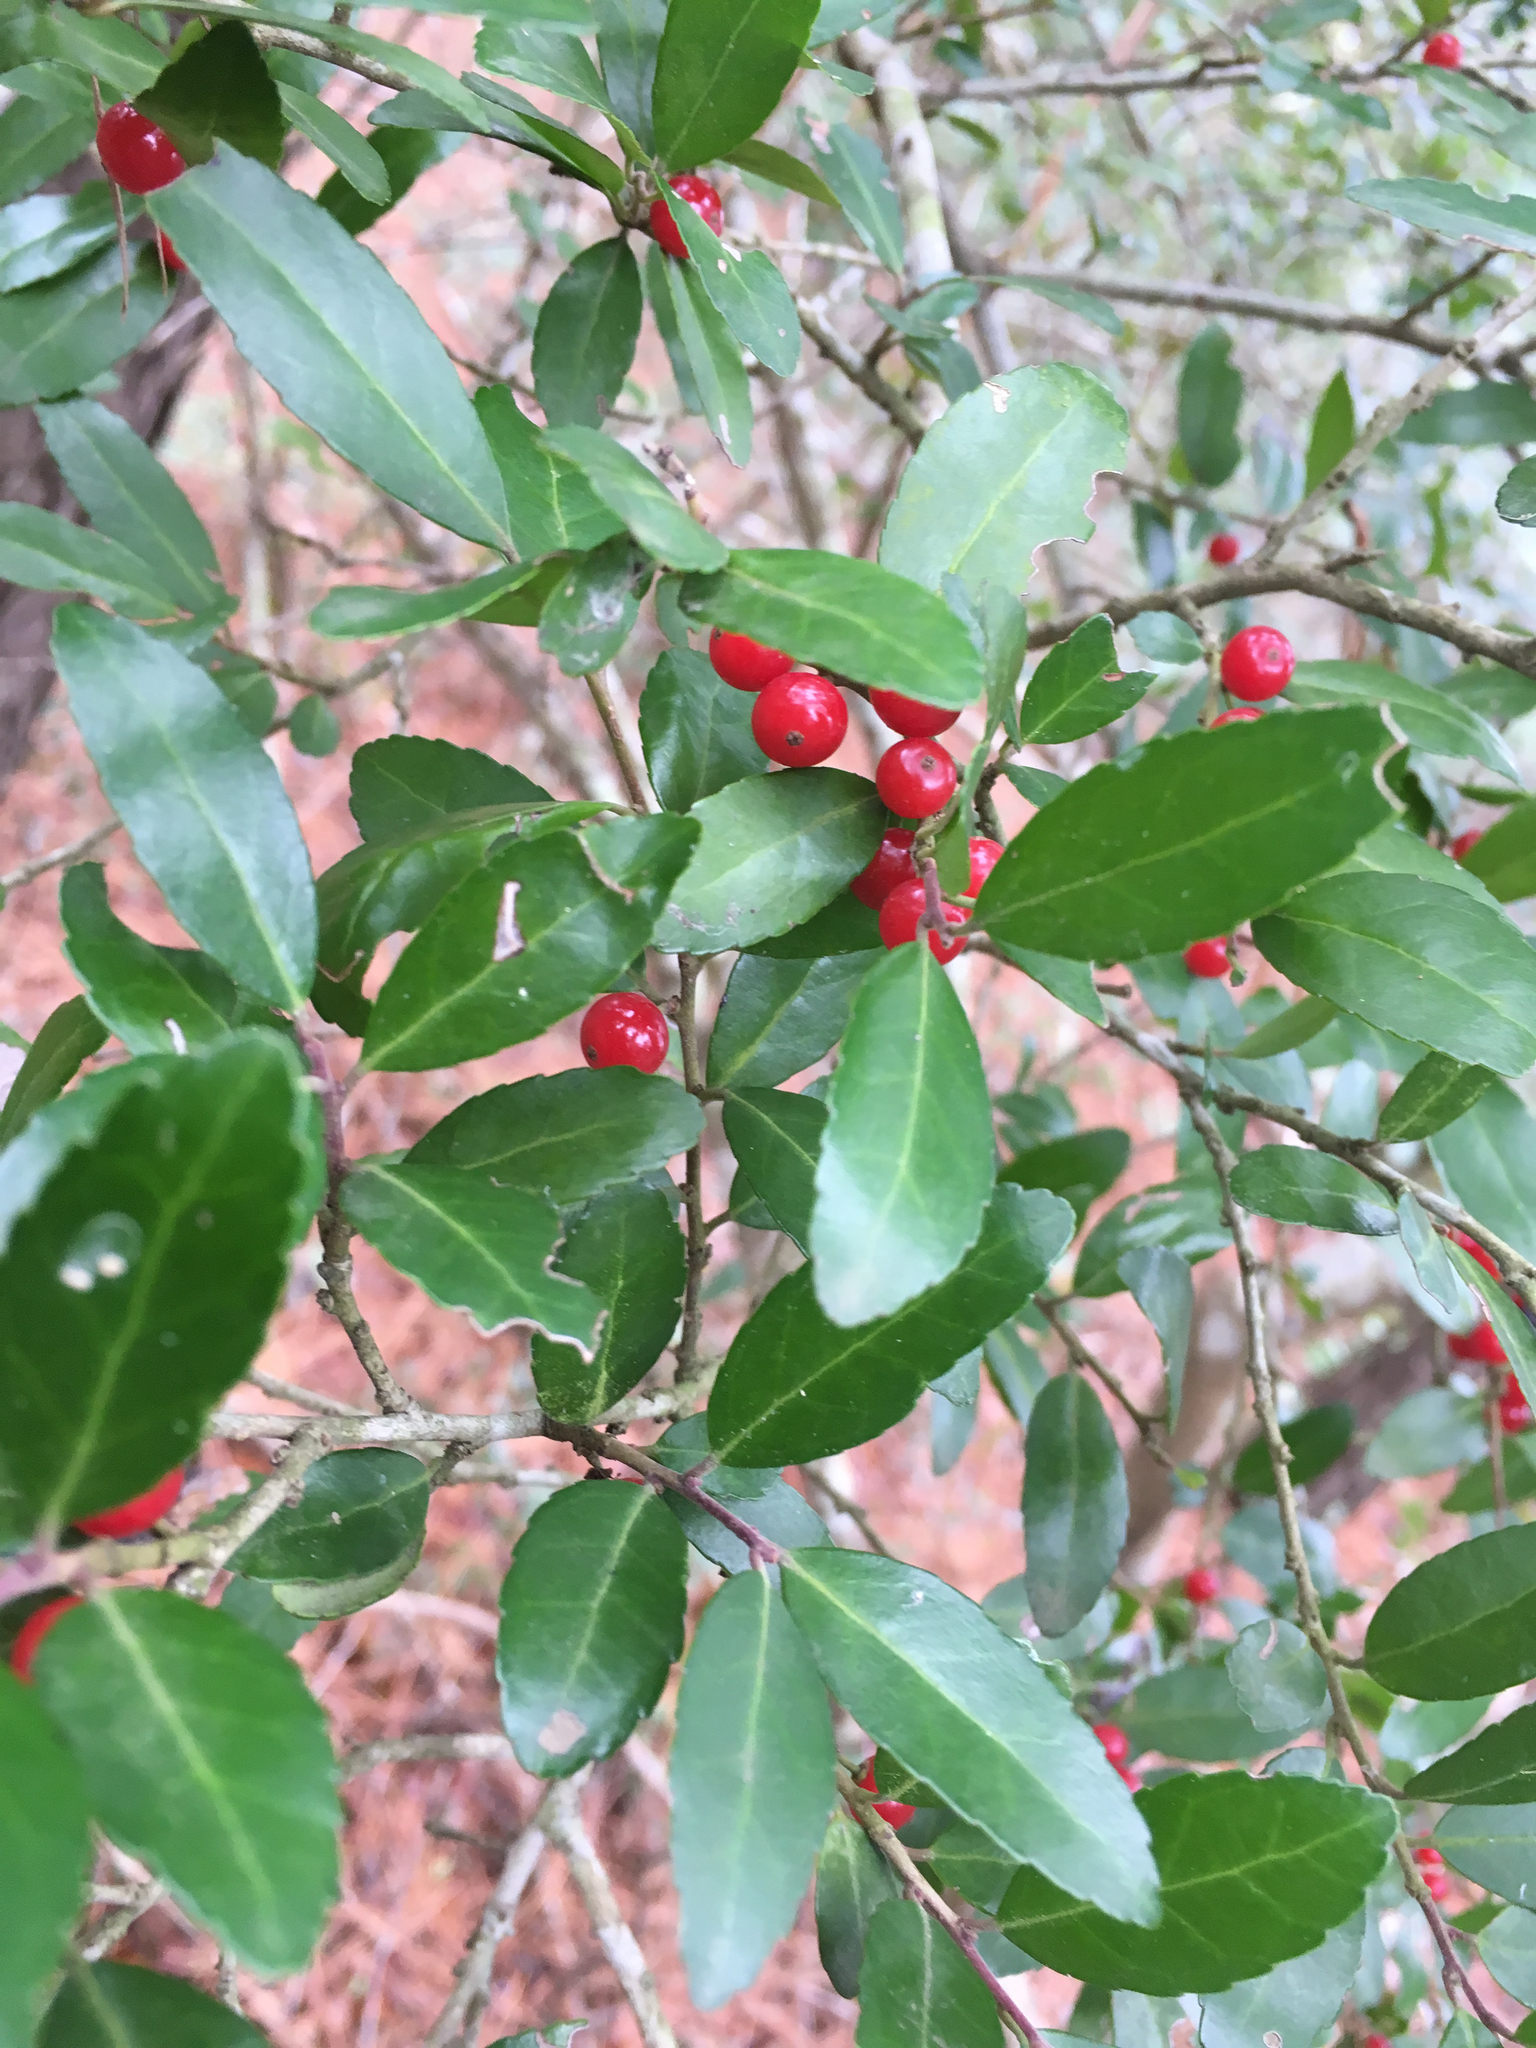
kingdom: Plantae
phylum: Tracheophyta
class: Magnoliopsida
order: Aquifoliales
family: Aquifoliaceae
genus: Ilex
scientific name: Ilex vomitoria
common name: Yaupon holly
